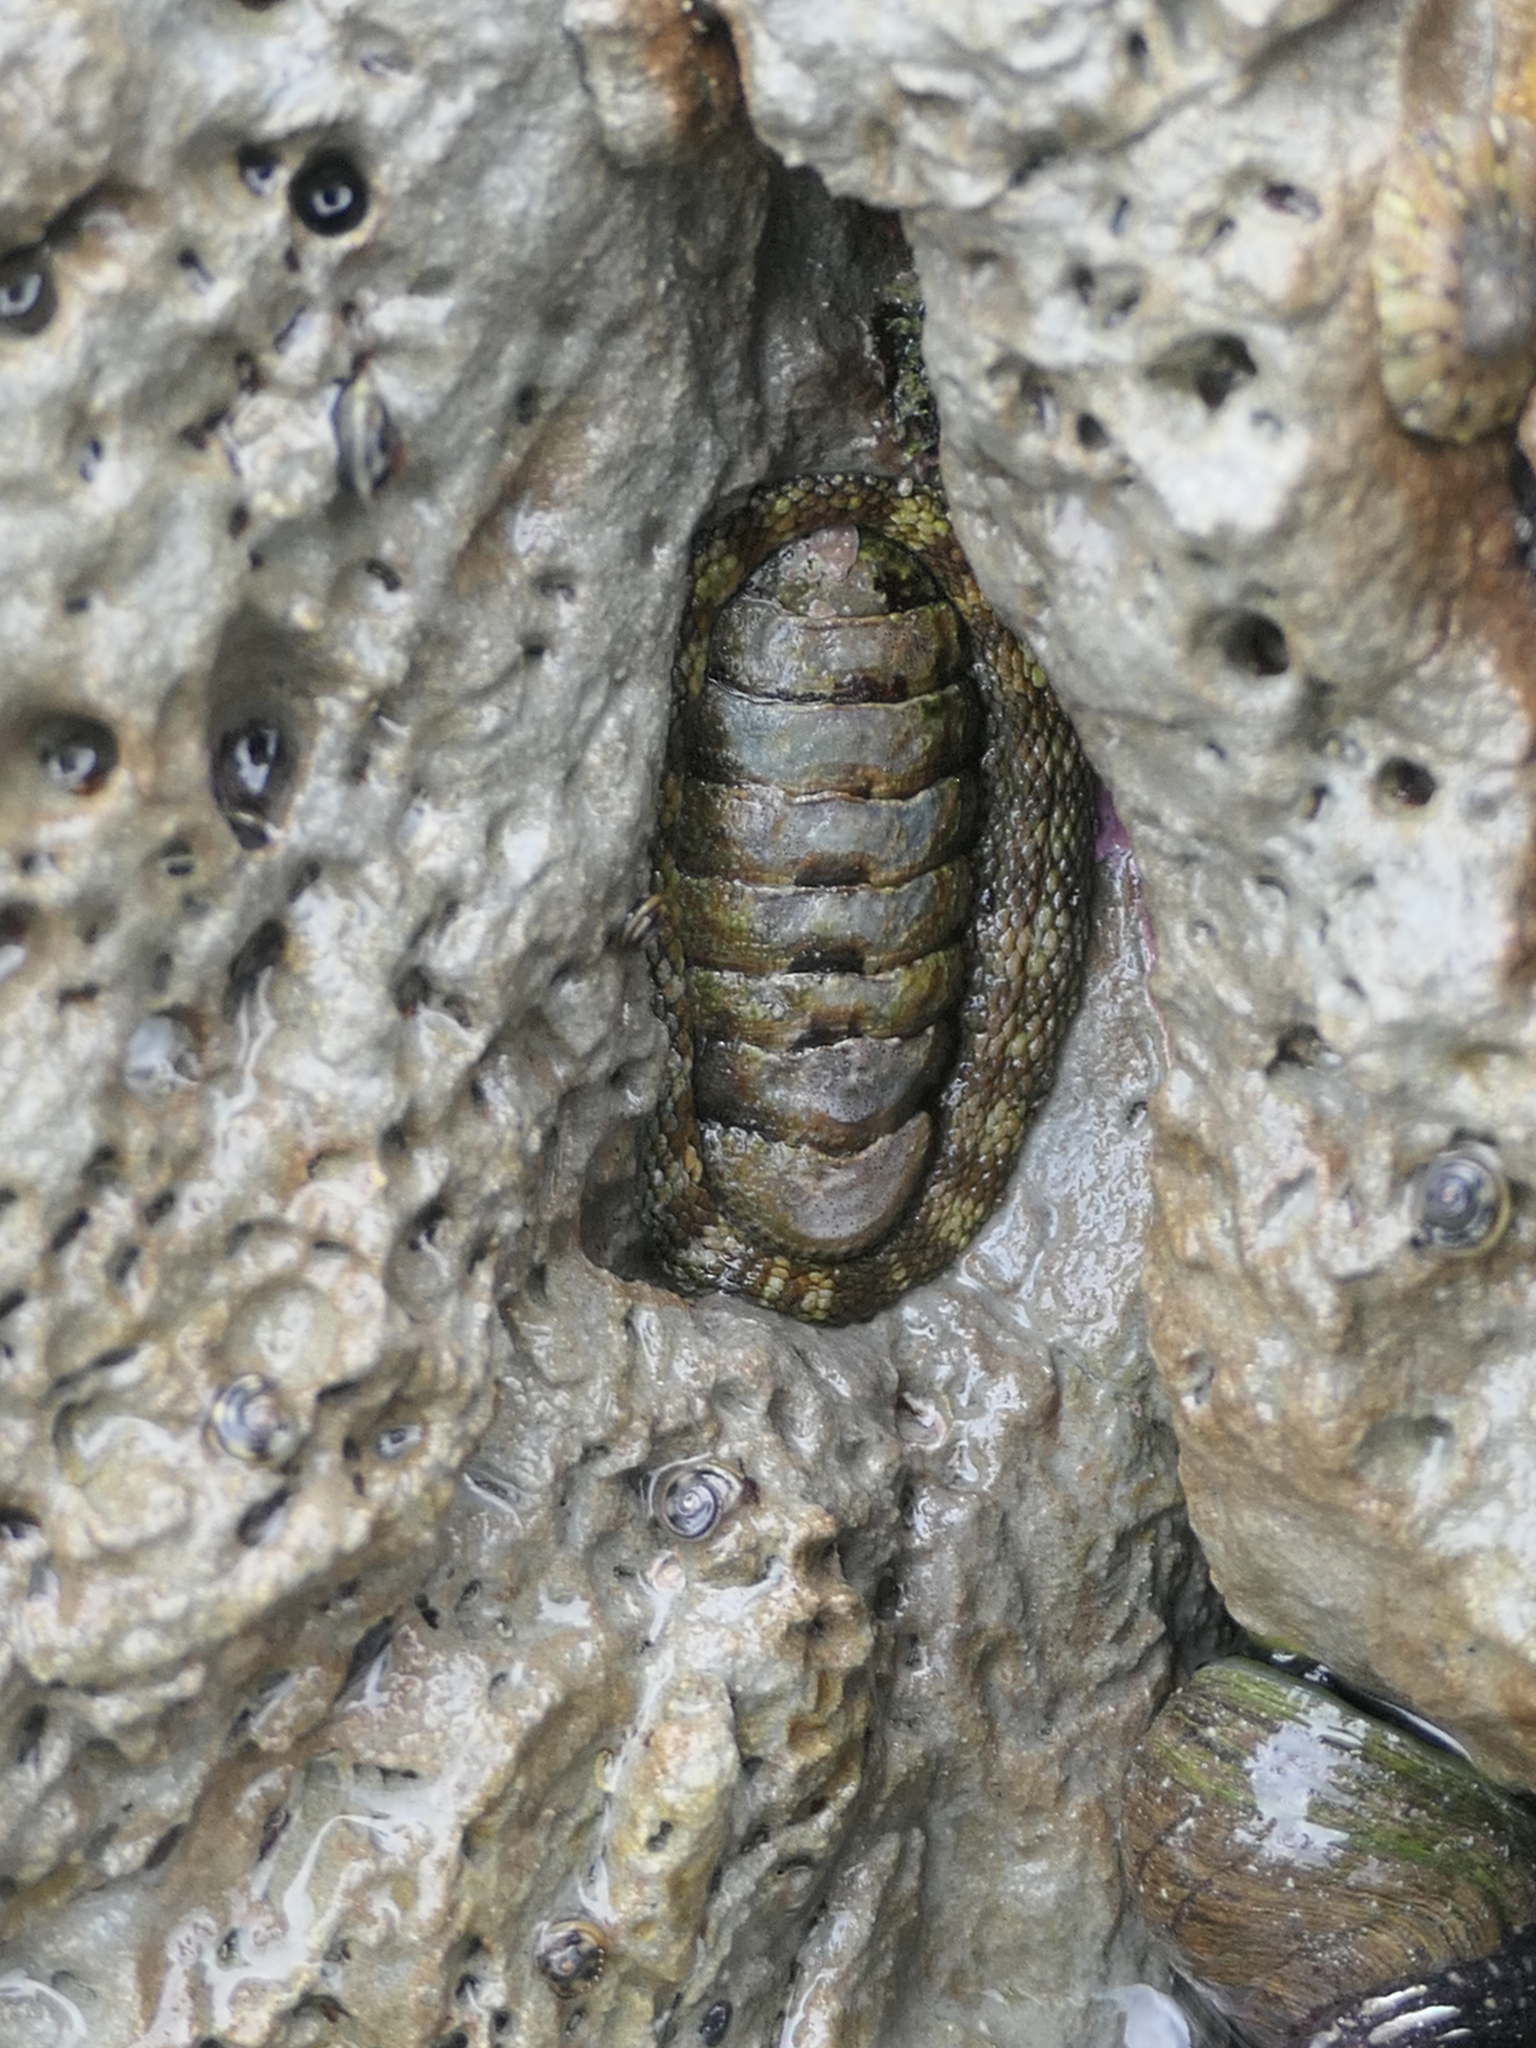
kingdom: Animalia
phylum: Mollusca
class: Polyplacophora
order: Chitonida
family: Chitonidae
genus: Sypharochiton
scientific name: Sypharochiton pelliserpentis
